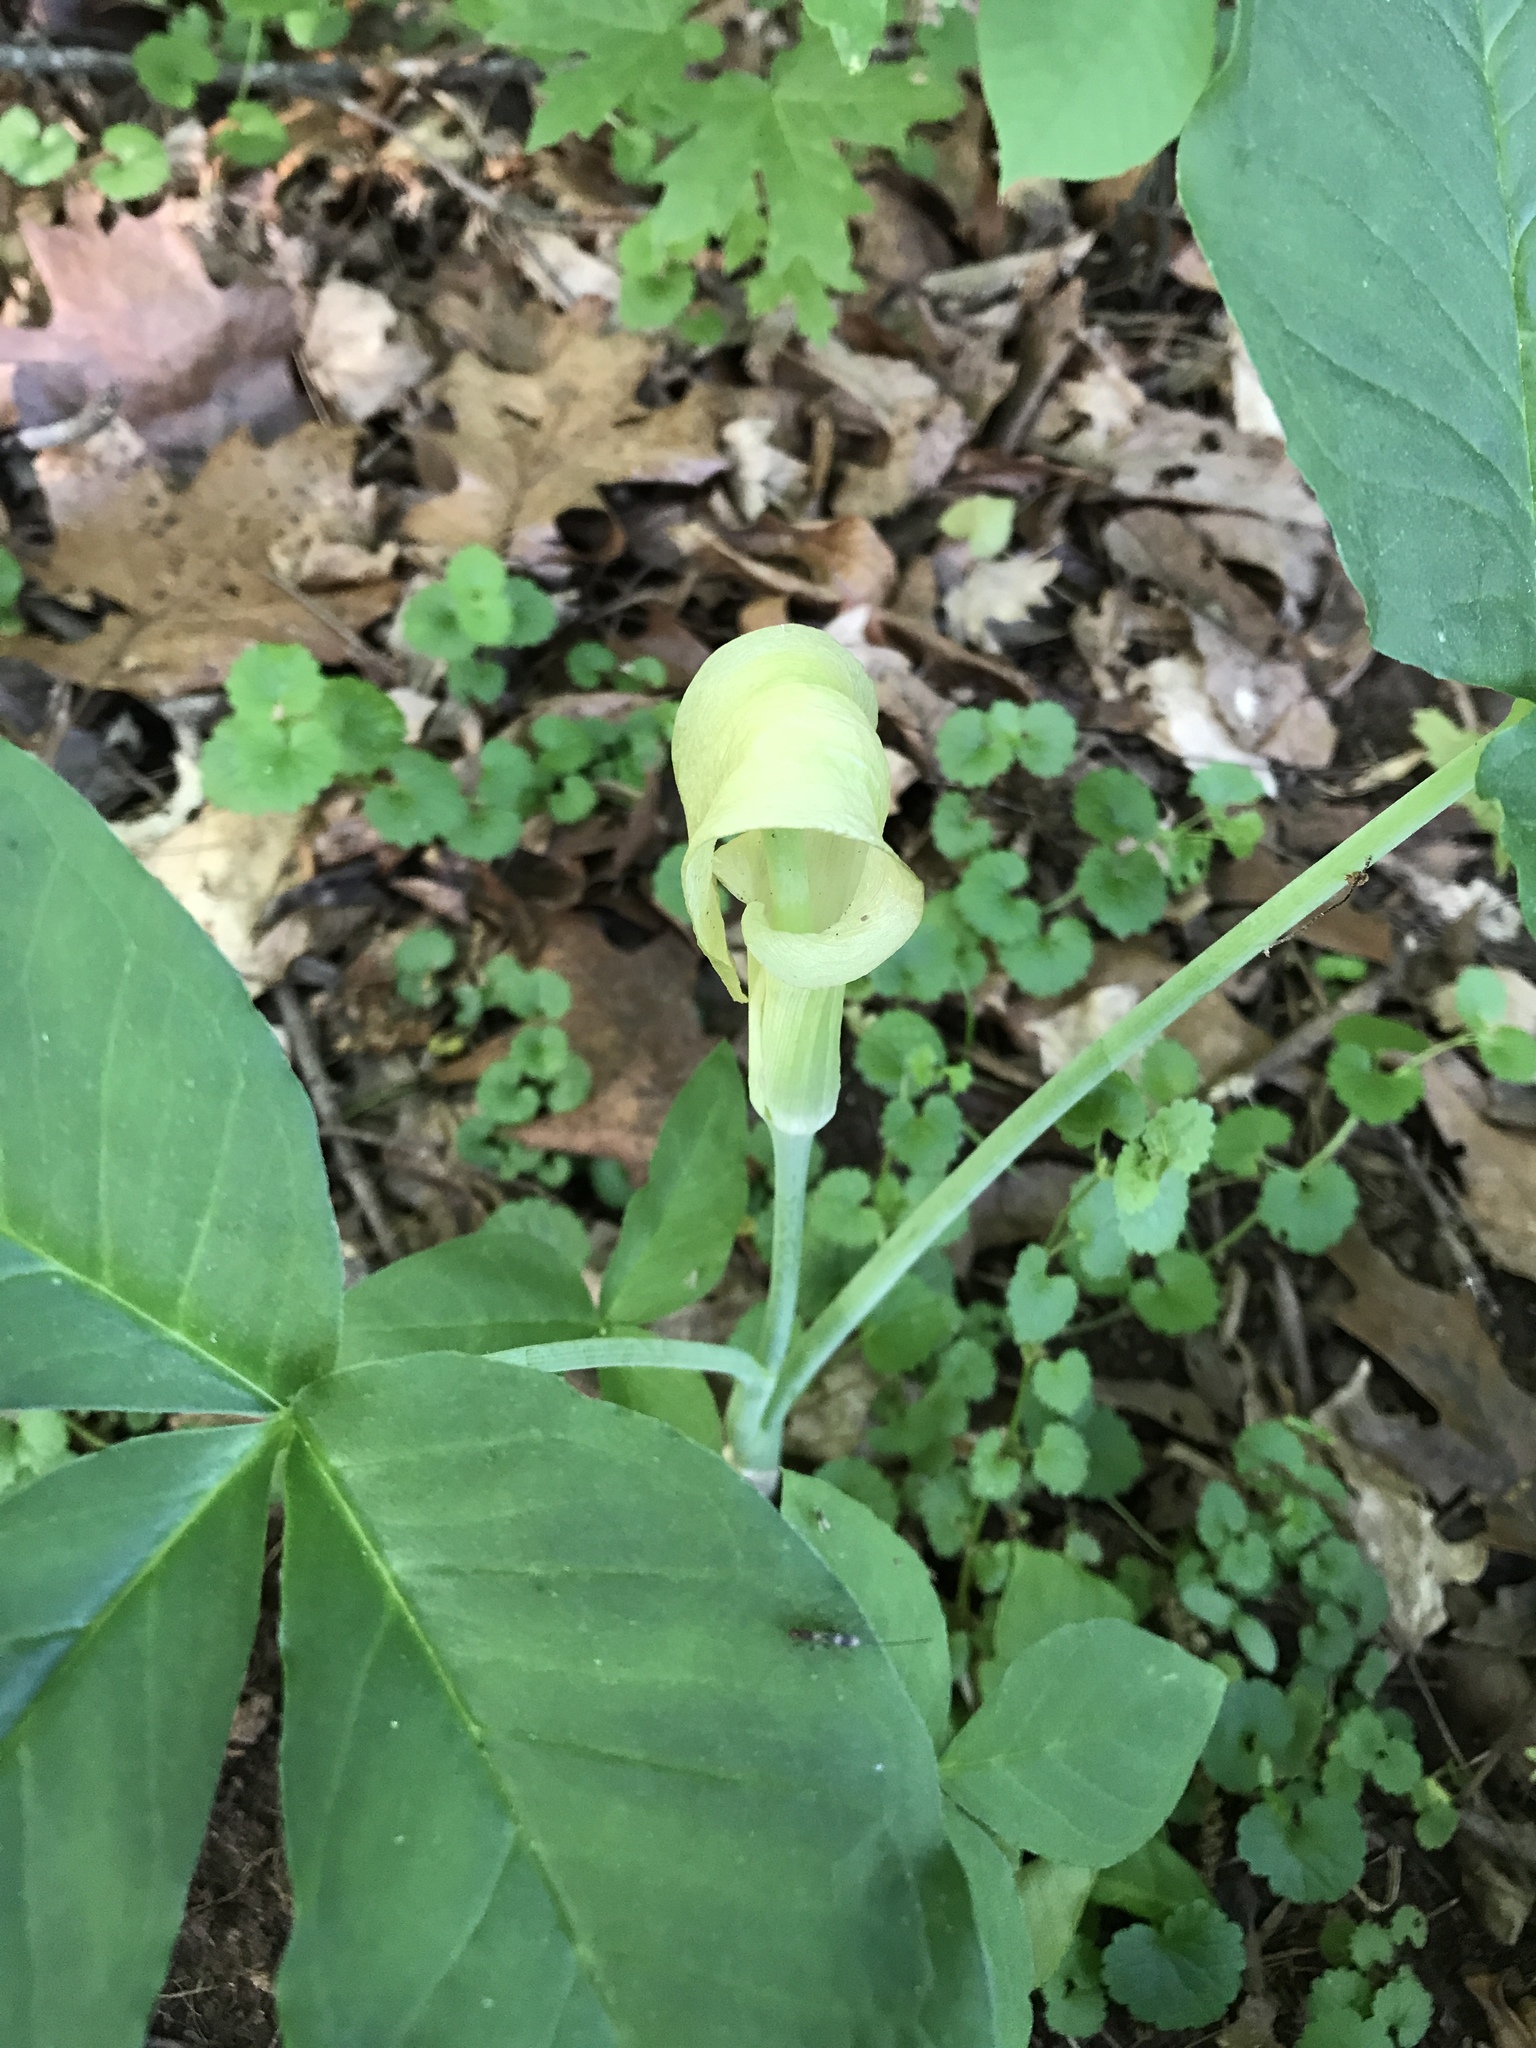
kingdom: Plantae
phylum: Tracheophyta
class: Liliopsida
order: Alismatales
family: Araceae
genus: Arisaema
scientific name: Arisaema triphyllum
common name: Jack-in-the-pulpit
